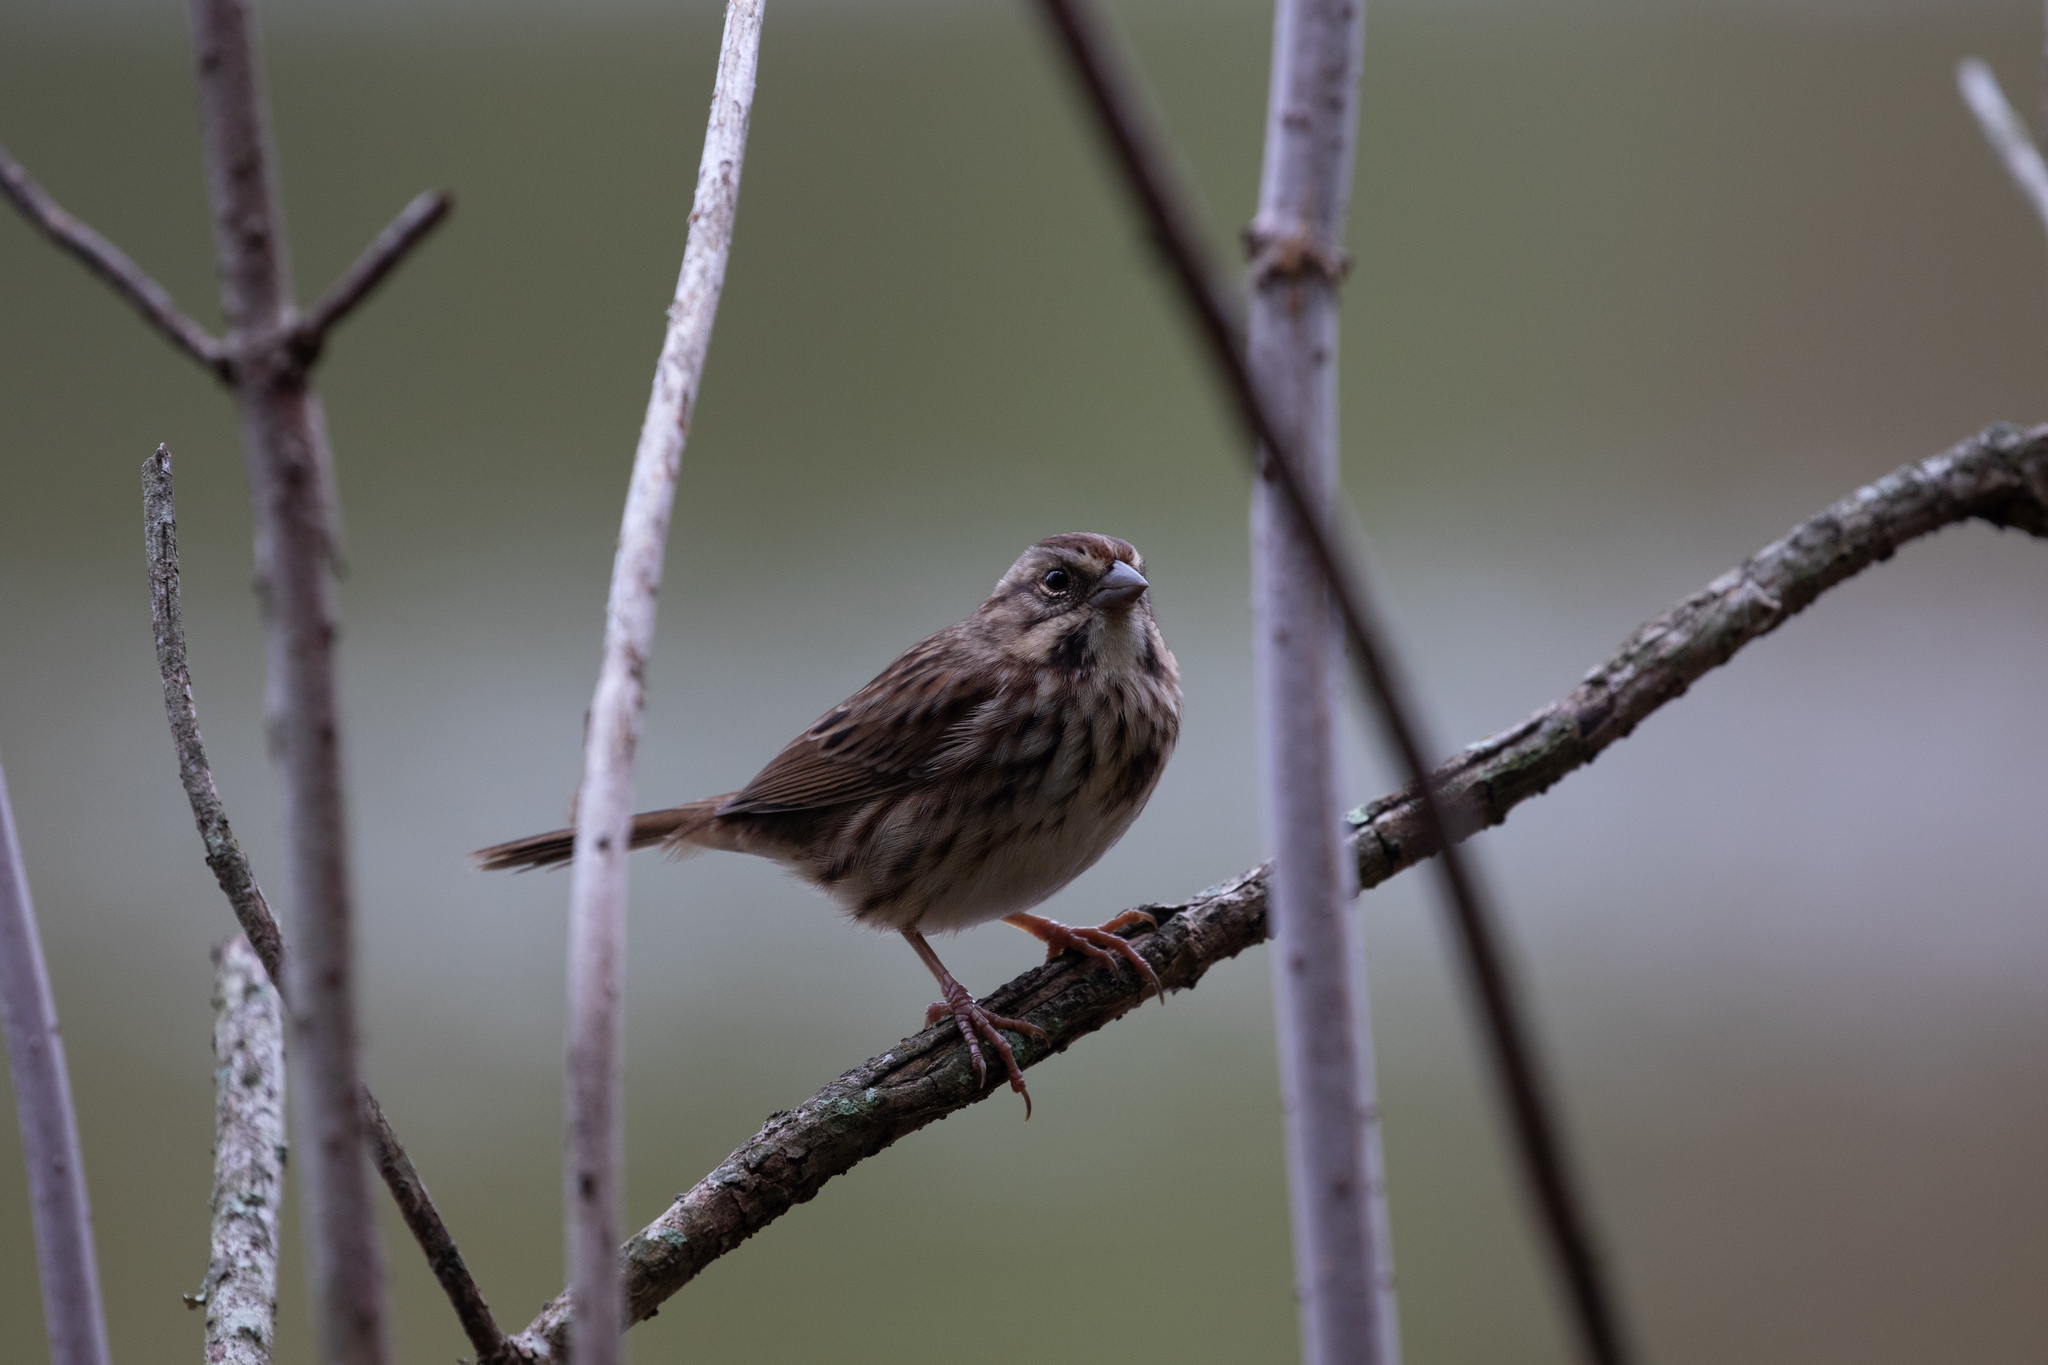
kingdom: Animalia
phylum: Chordata
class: Aves
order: Passeriformes
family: Passerellidae
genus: Melospiza
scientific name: Melospiza melodia
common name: Song sparrow
